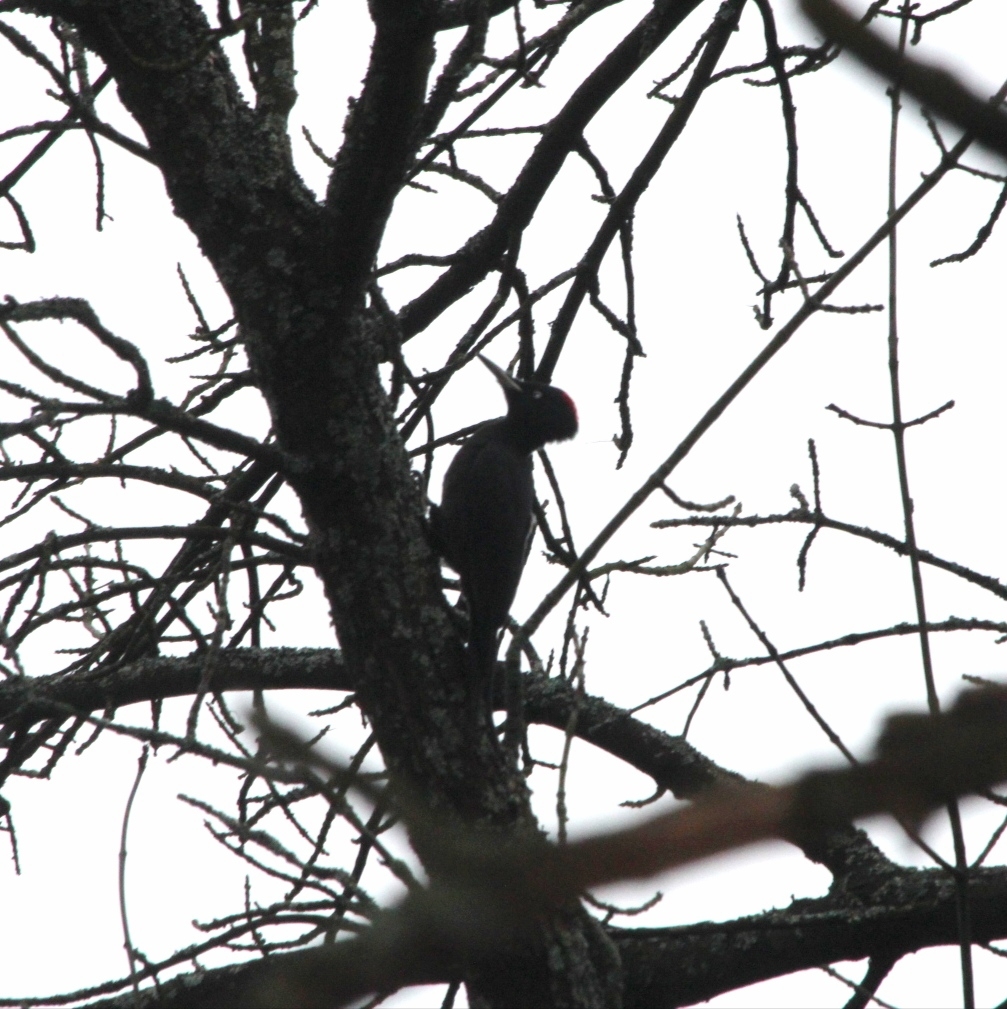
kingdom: Animalia
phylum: Chordata
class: Aves
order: Piciformes
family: Picidae
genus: Dryocopus
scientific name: Dryocopus martius
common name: Black woodpecker
